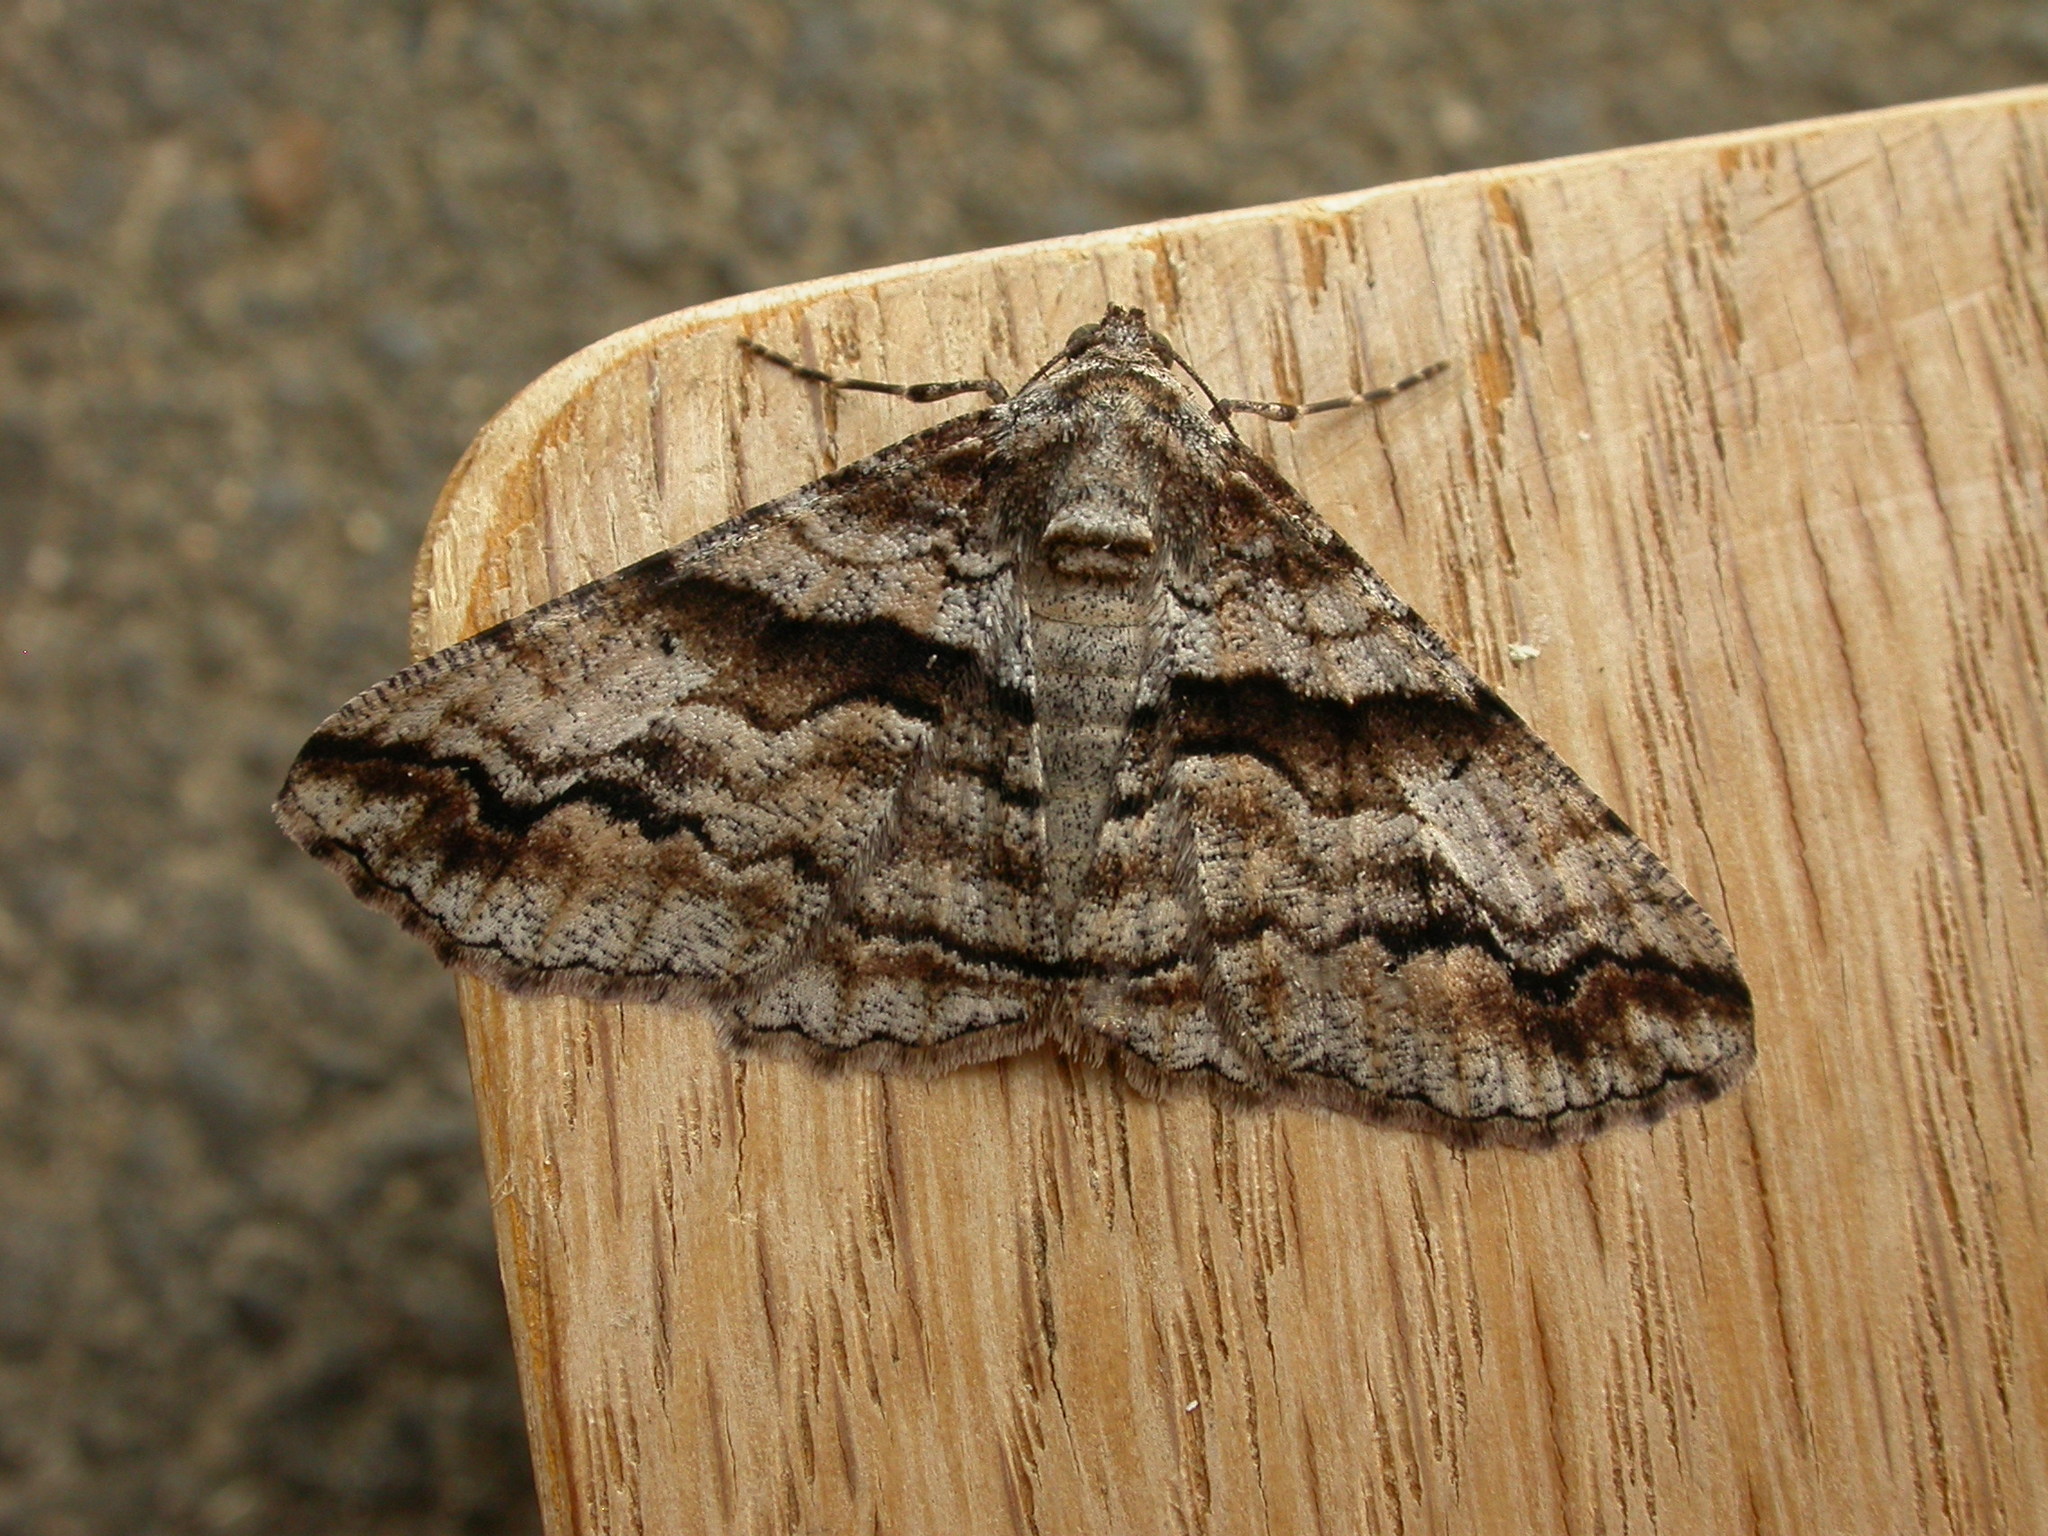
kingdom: Animalia
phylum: Arthropoda
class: Insecta
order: Lepidoptera
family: Geometridae
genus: Gastrinodes
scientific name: Gastrinodes bitaeniaria
